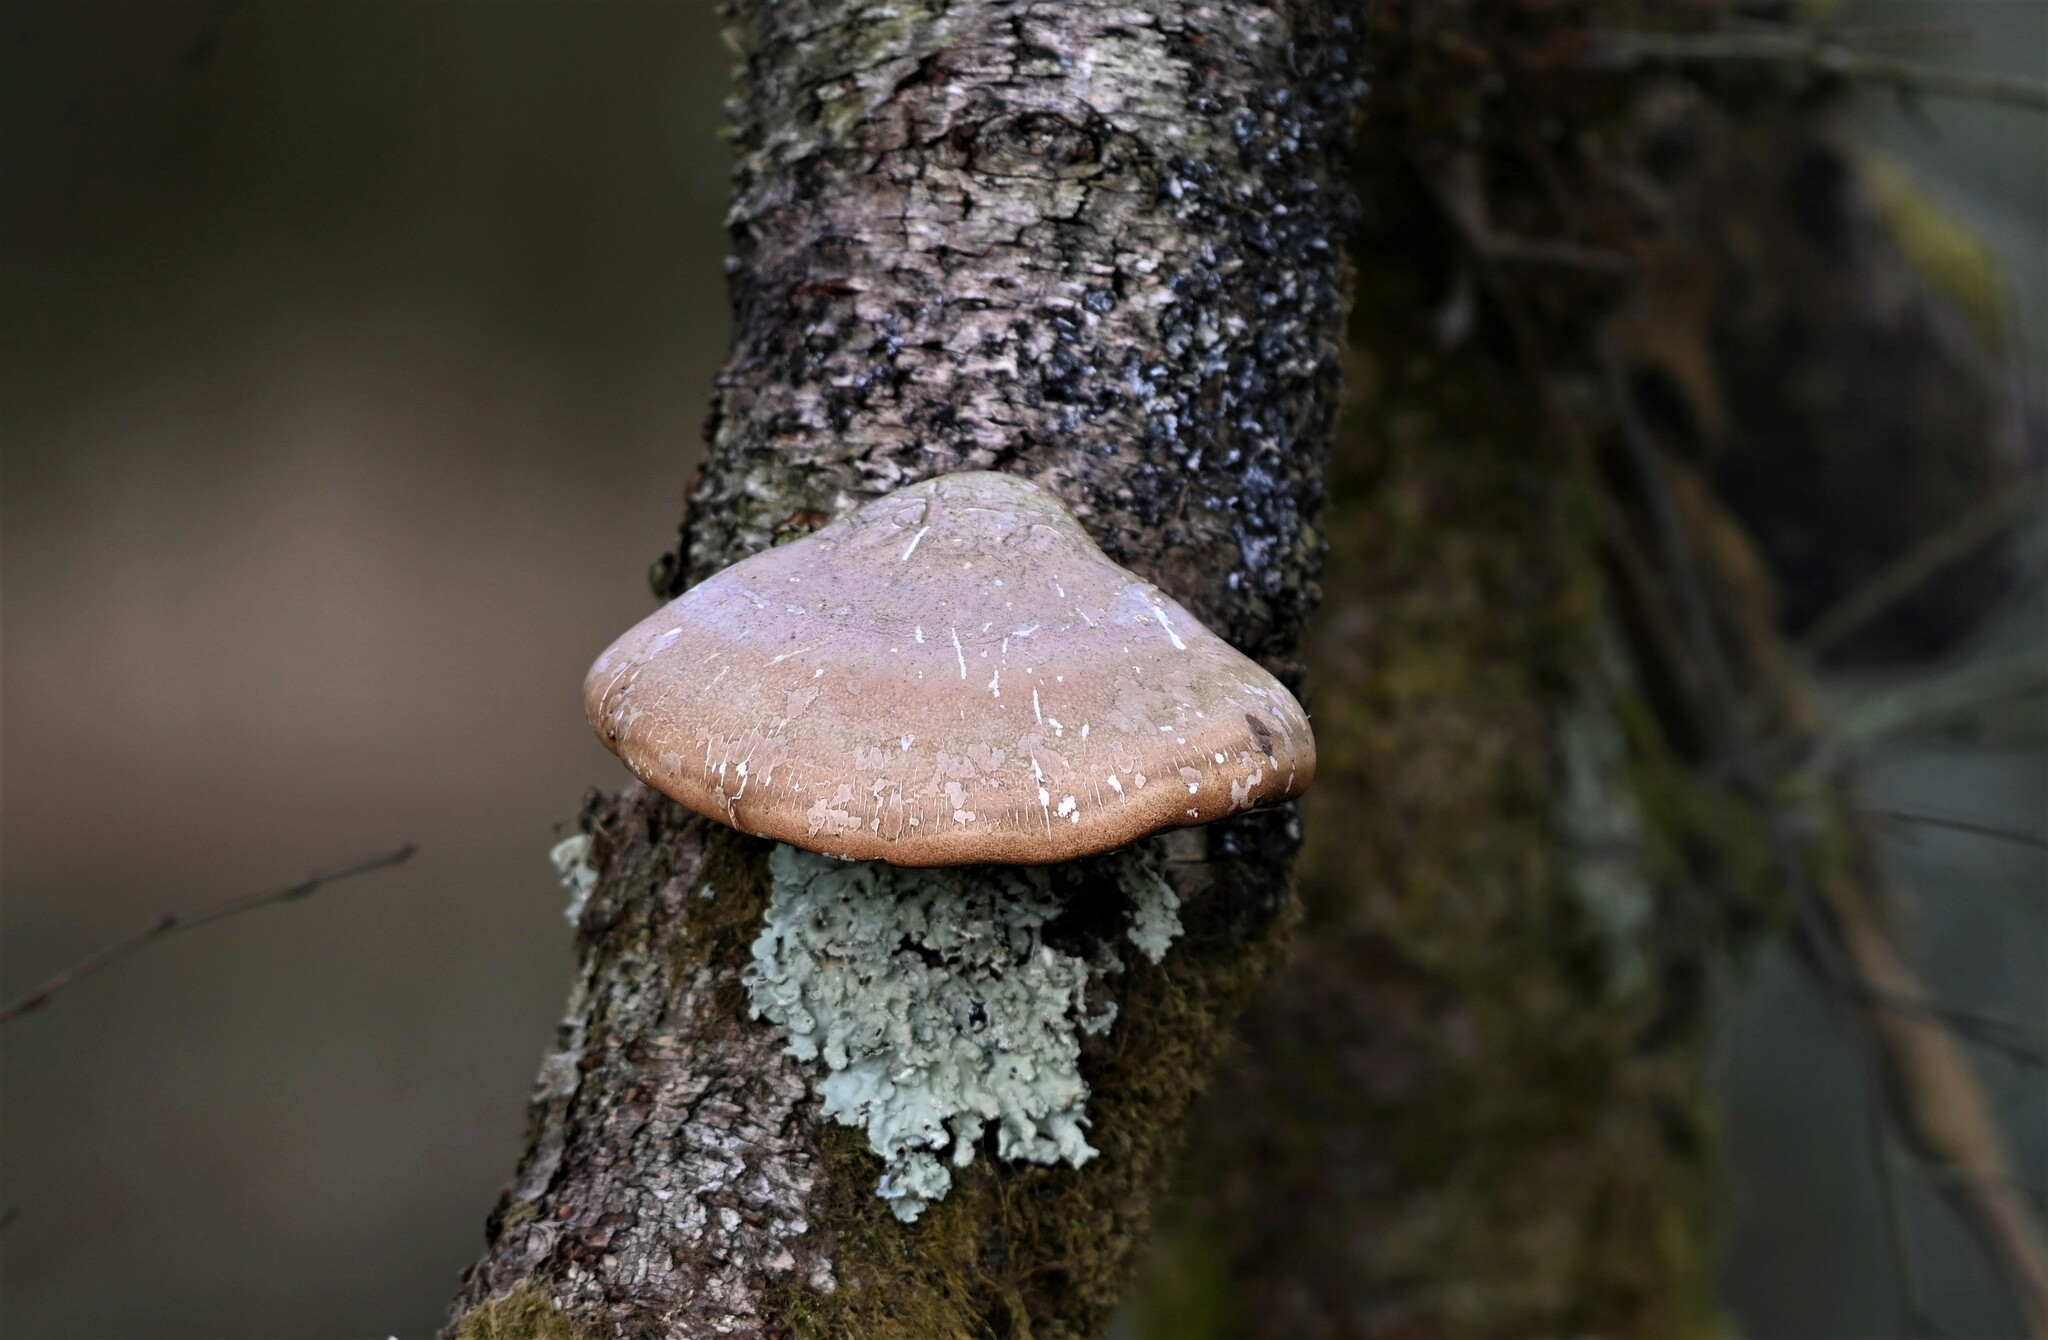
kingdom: Fungi
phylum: Basidiomycota
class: Agaricomycetes
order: Polyporales
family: Fomitopsidaceae
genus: Fomitopsis
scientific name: Fomitopsis betulina
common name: Birch polypore
